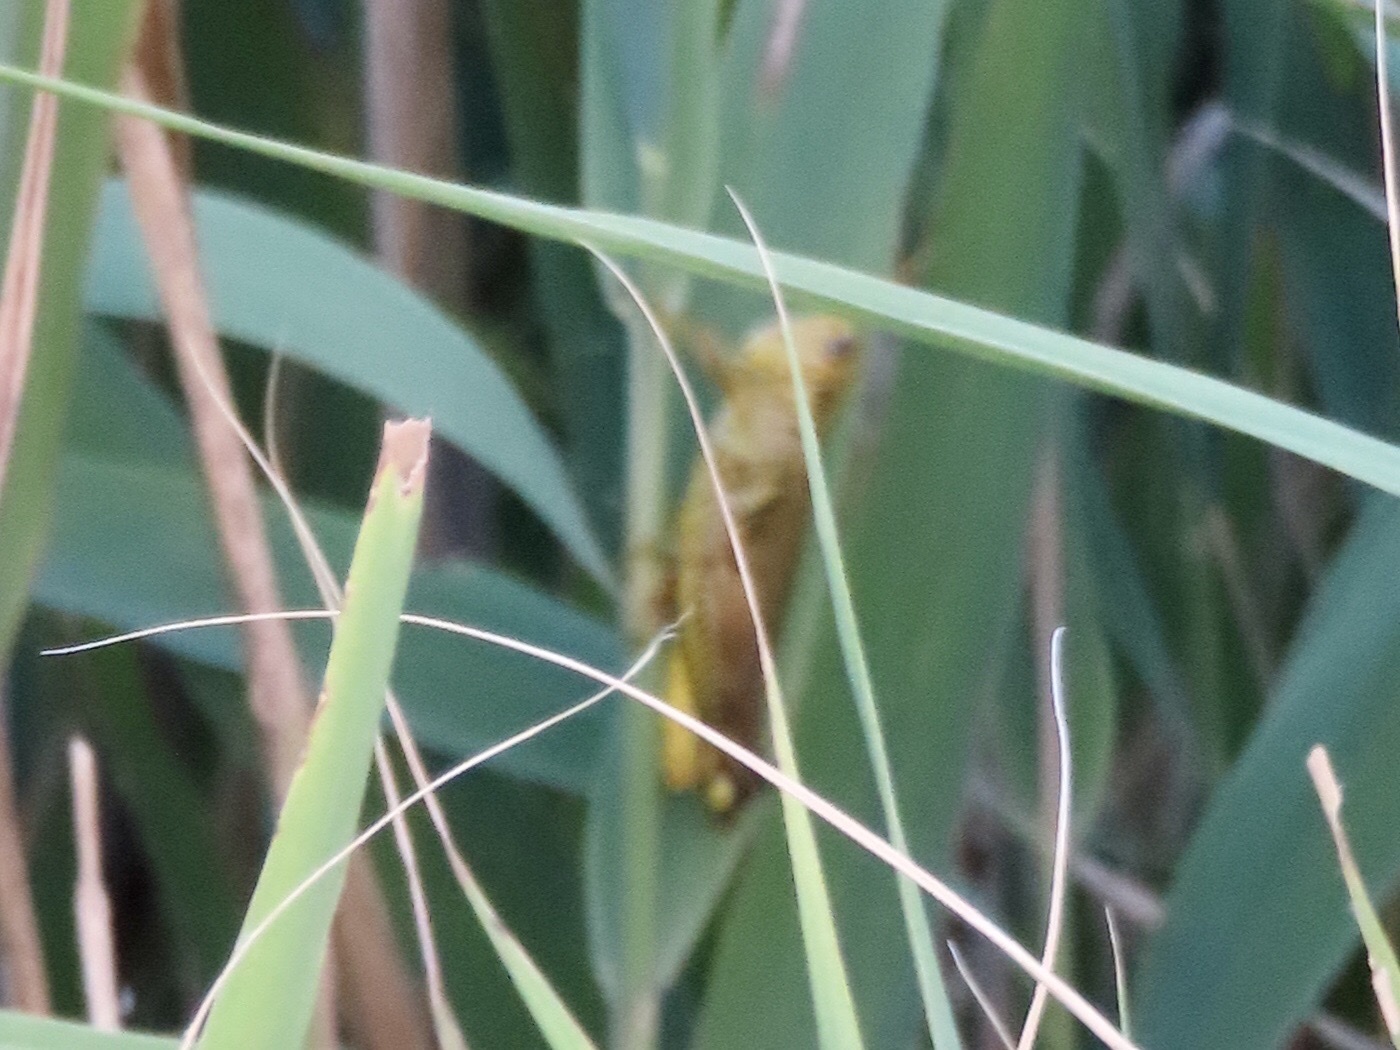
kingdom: Animalia
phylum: Arthropoda
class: Insecta
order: Orthoptera
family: Acrididae
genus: Melanoplus
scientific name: Melanoplus differentialis
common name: Differential grasshopper
